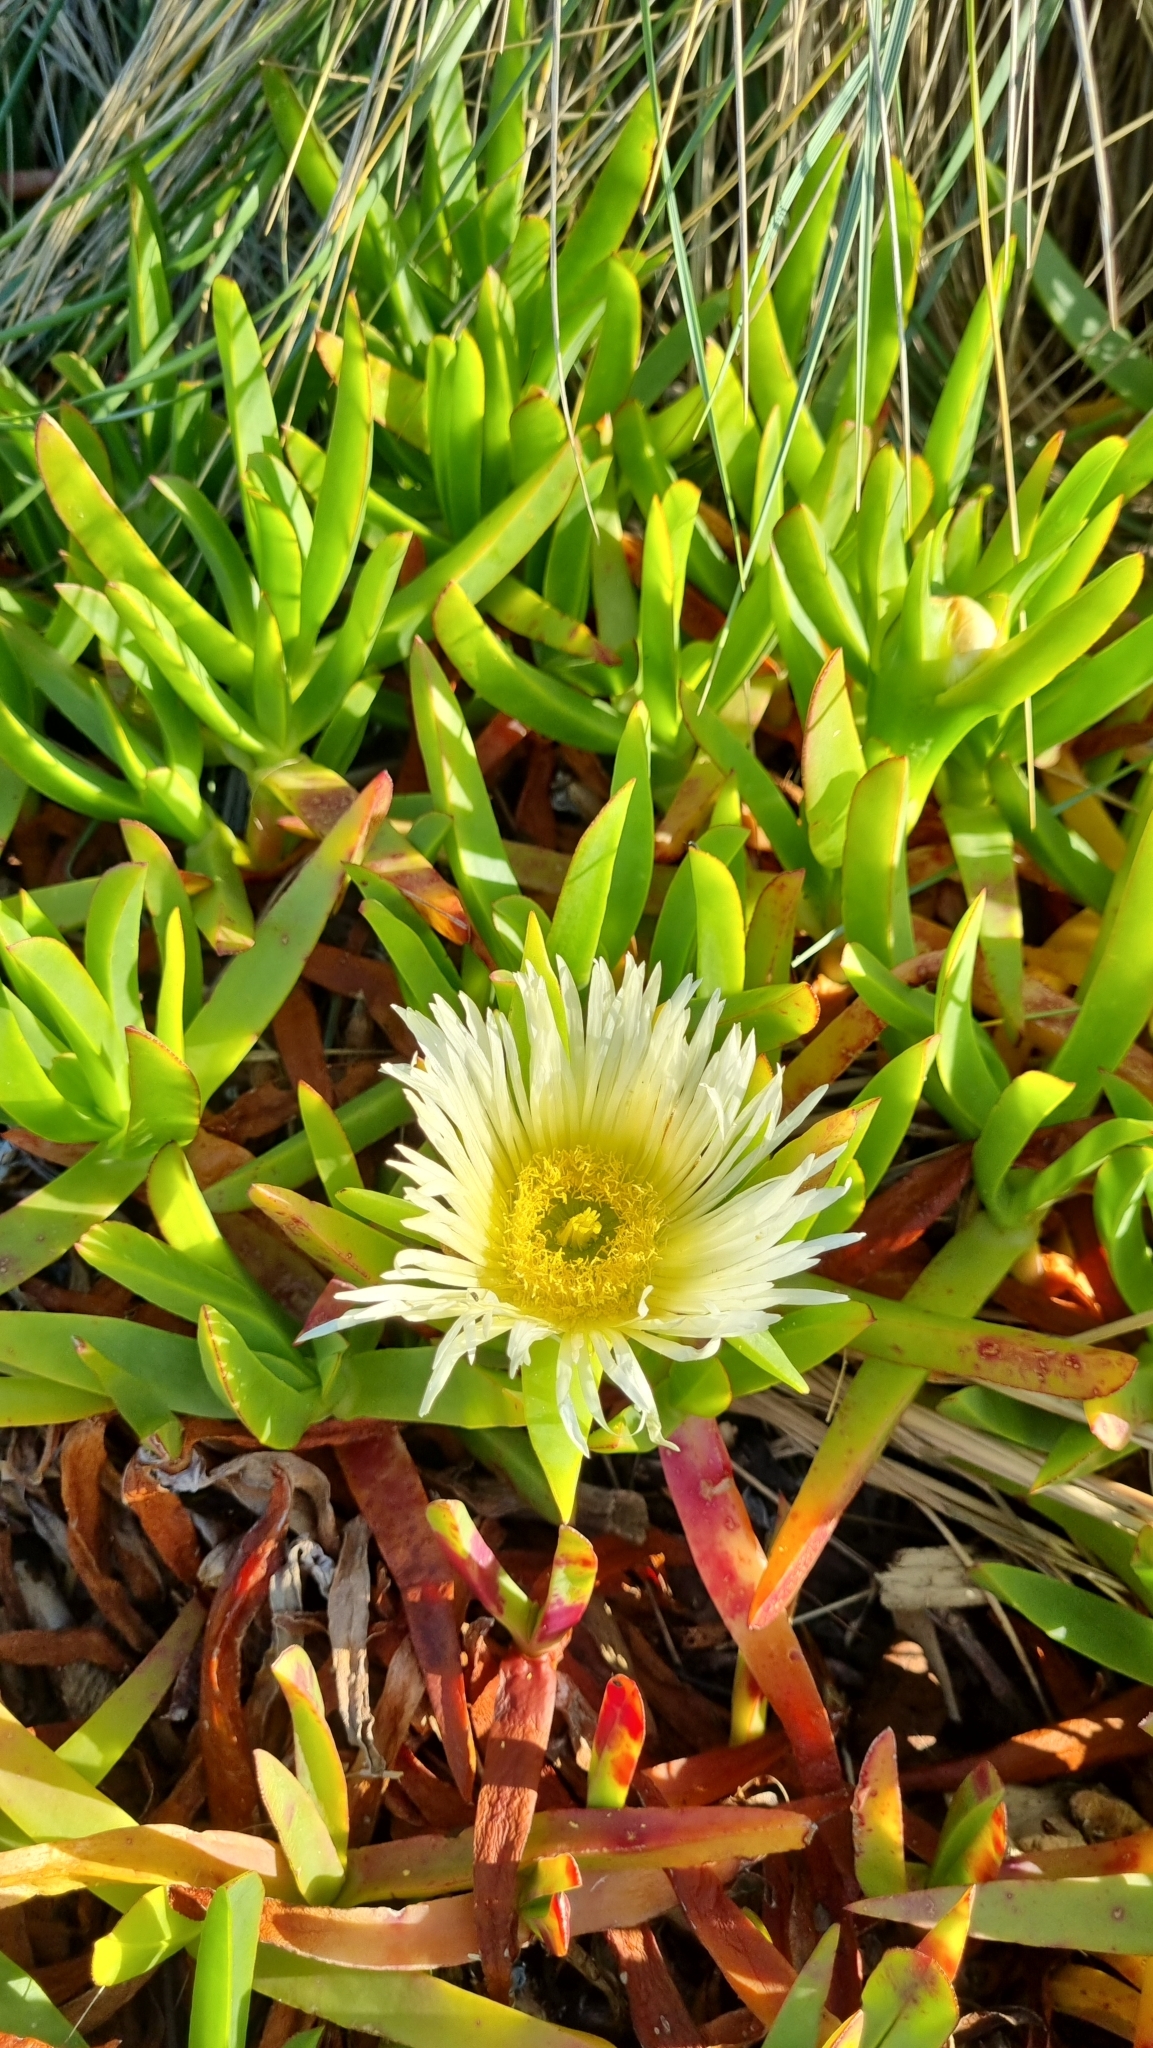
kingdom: Plantae
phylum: Tracheophyta
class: Magnoliopsida
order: Caryophyllales
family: Aizoaceae
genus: Carpobrotus
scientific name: Carpobrotus edulis
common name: Hottentot-fig
